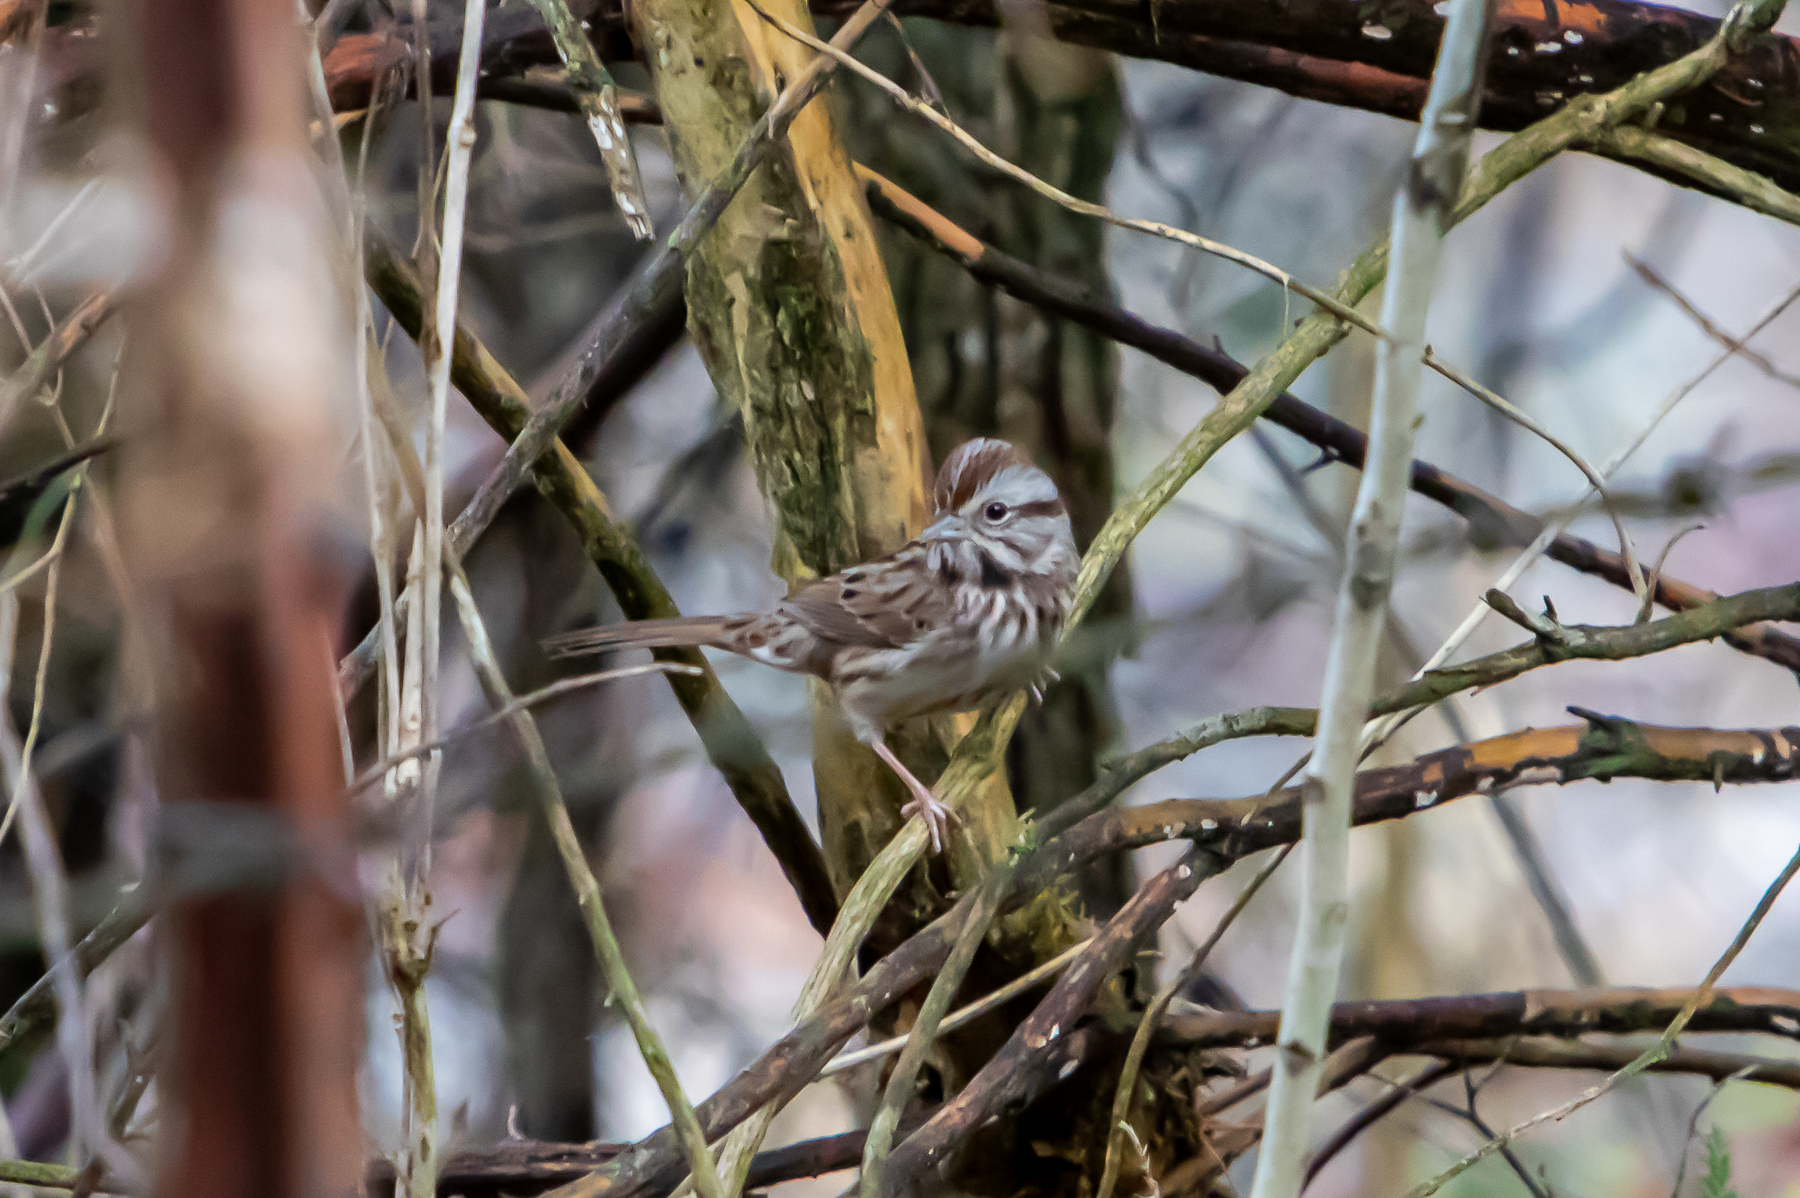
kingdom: Animalia
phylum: Chordata
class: Aves
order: Passeriformes
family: Passerellidae
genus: Melospiza
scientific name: Melospiza melodia
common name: Song sparrow
